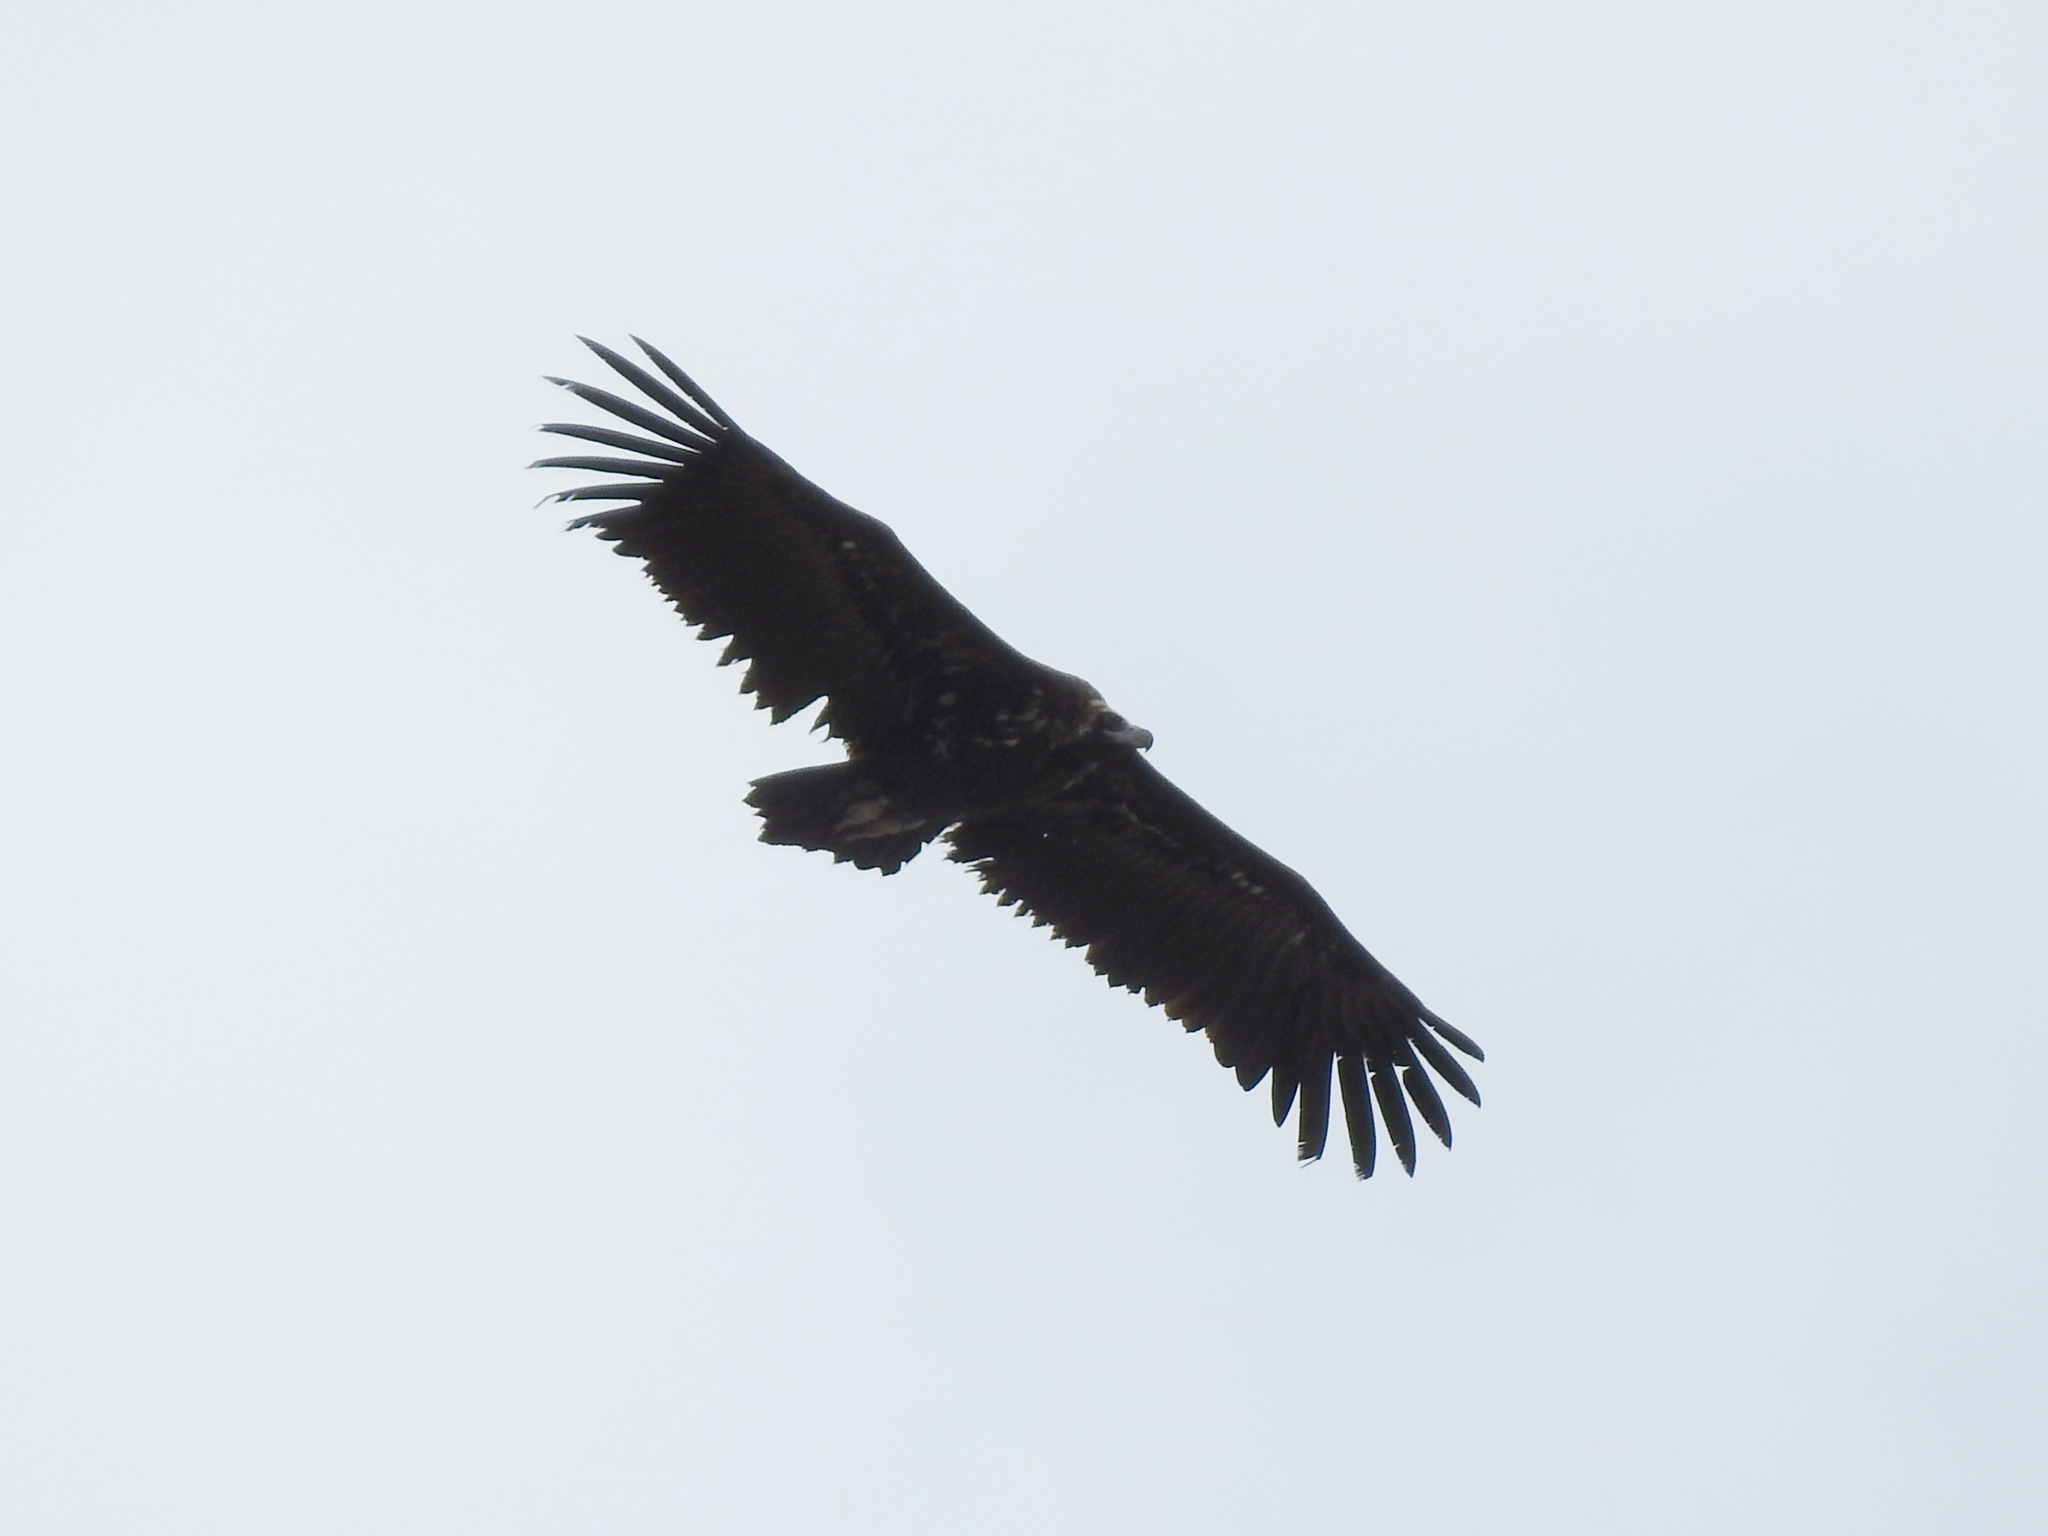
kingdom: Animalia
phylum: Chordata
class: Aves
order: Accipitriformes
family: Accipitridae
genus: Aegypius
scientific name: Aegypius monachus
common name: Cinereous vulture
